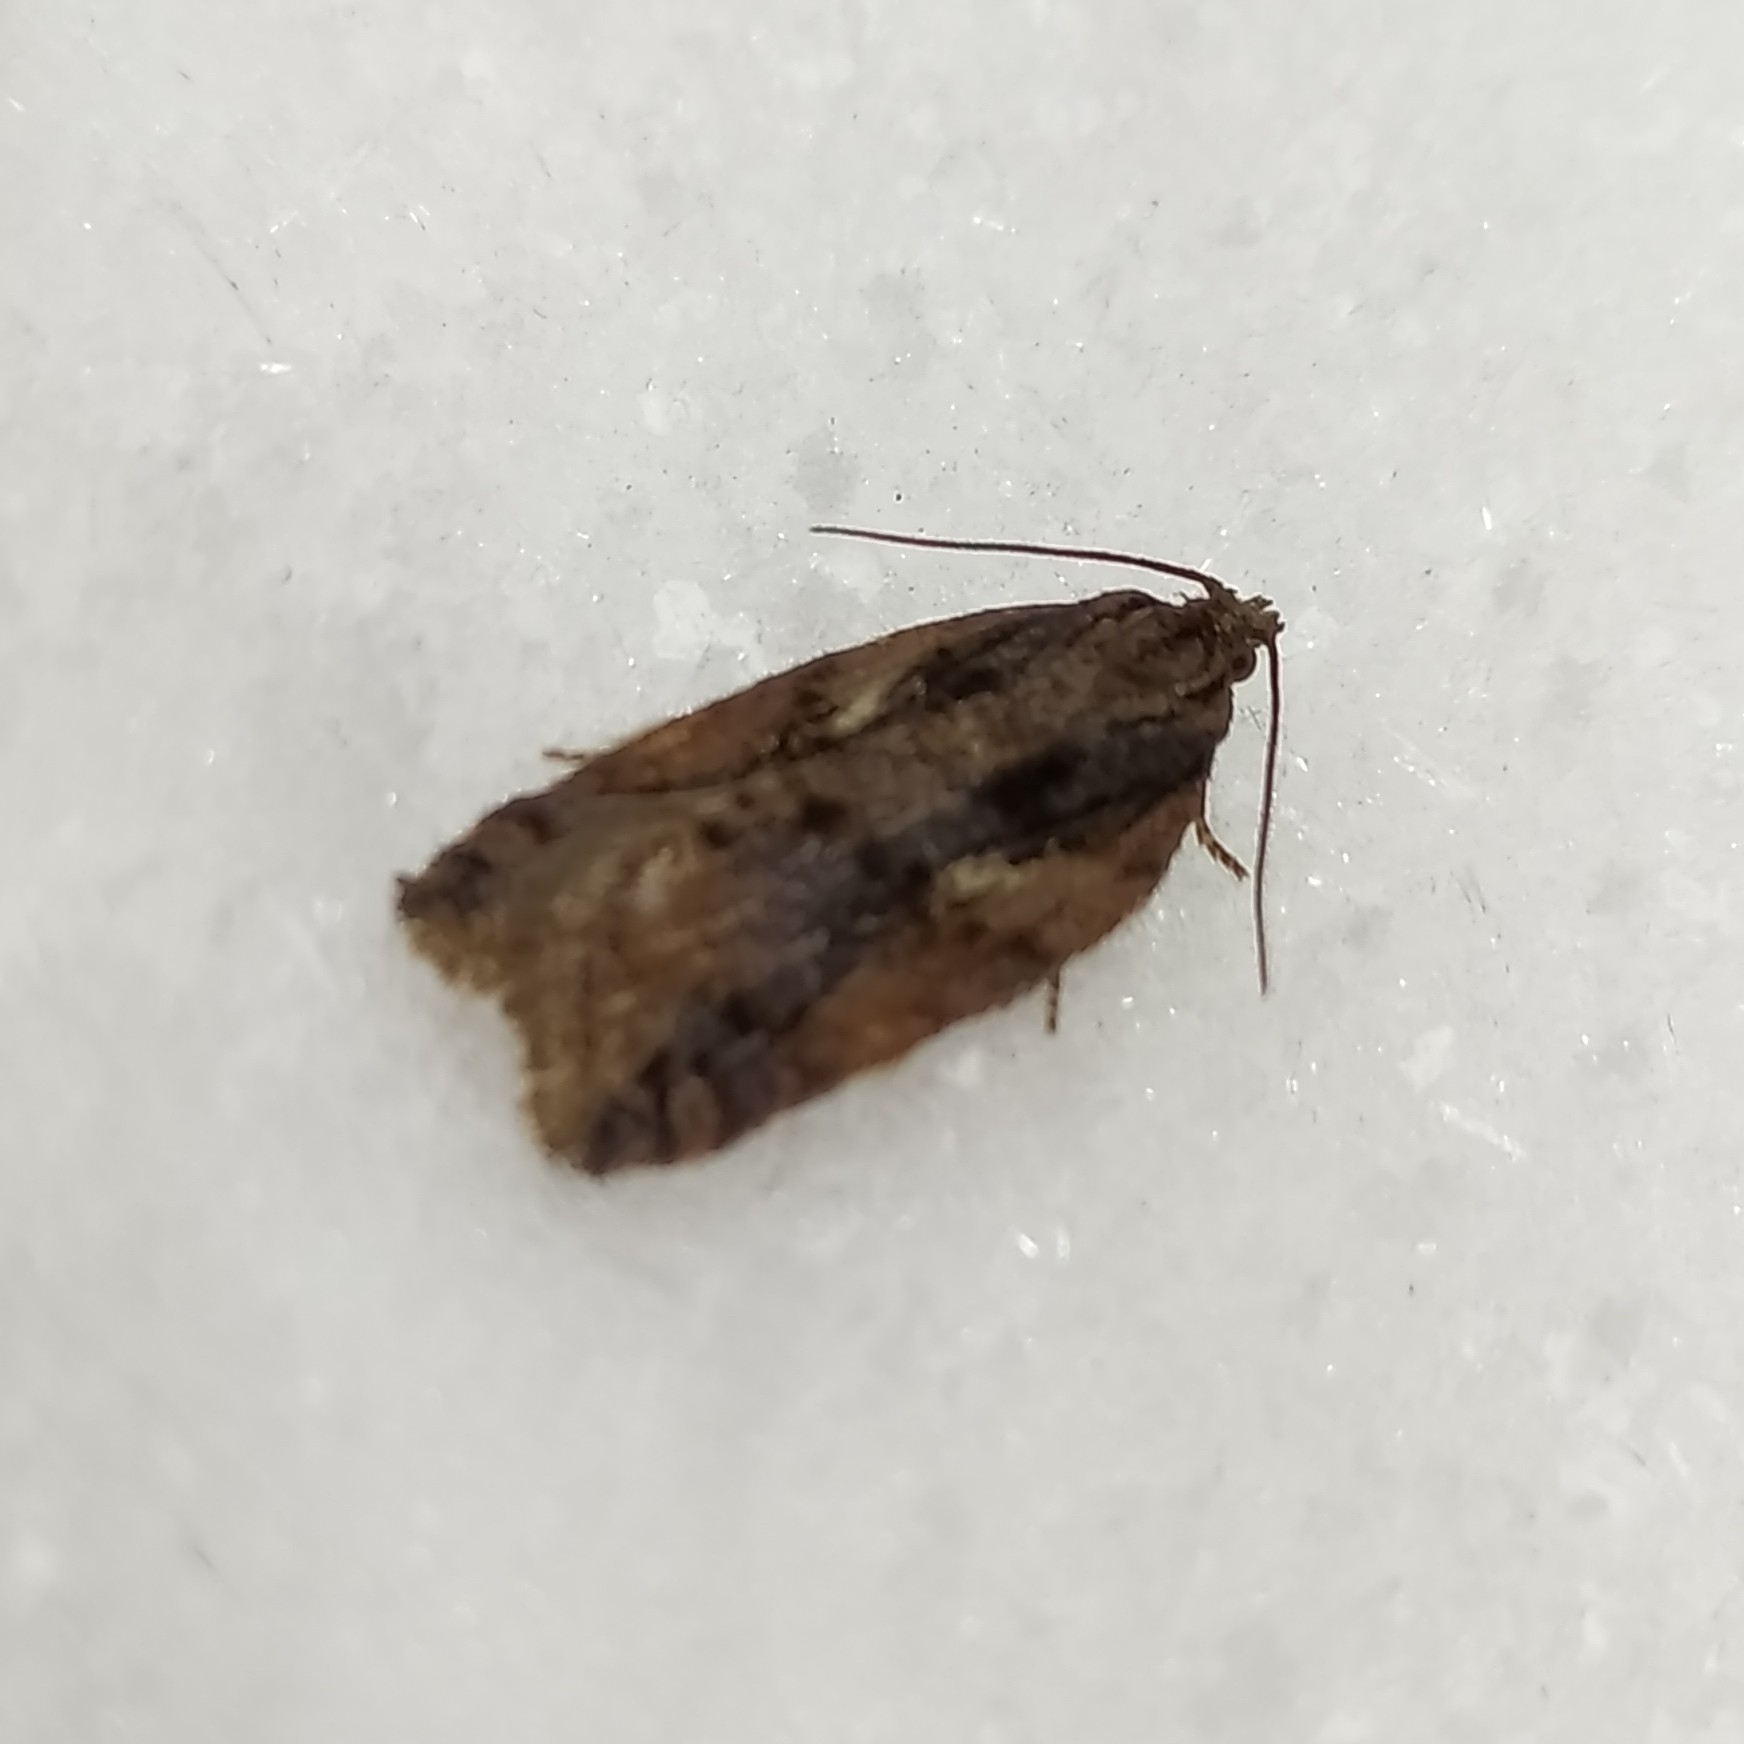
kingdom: Animalia
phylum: Arthropoda
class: Insecta
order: Lepidoptera
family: Tortricidae
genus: Acleris
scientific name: Acleris umbrana
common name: Dark-streaked button
